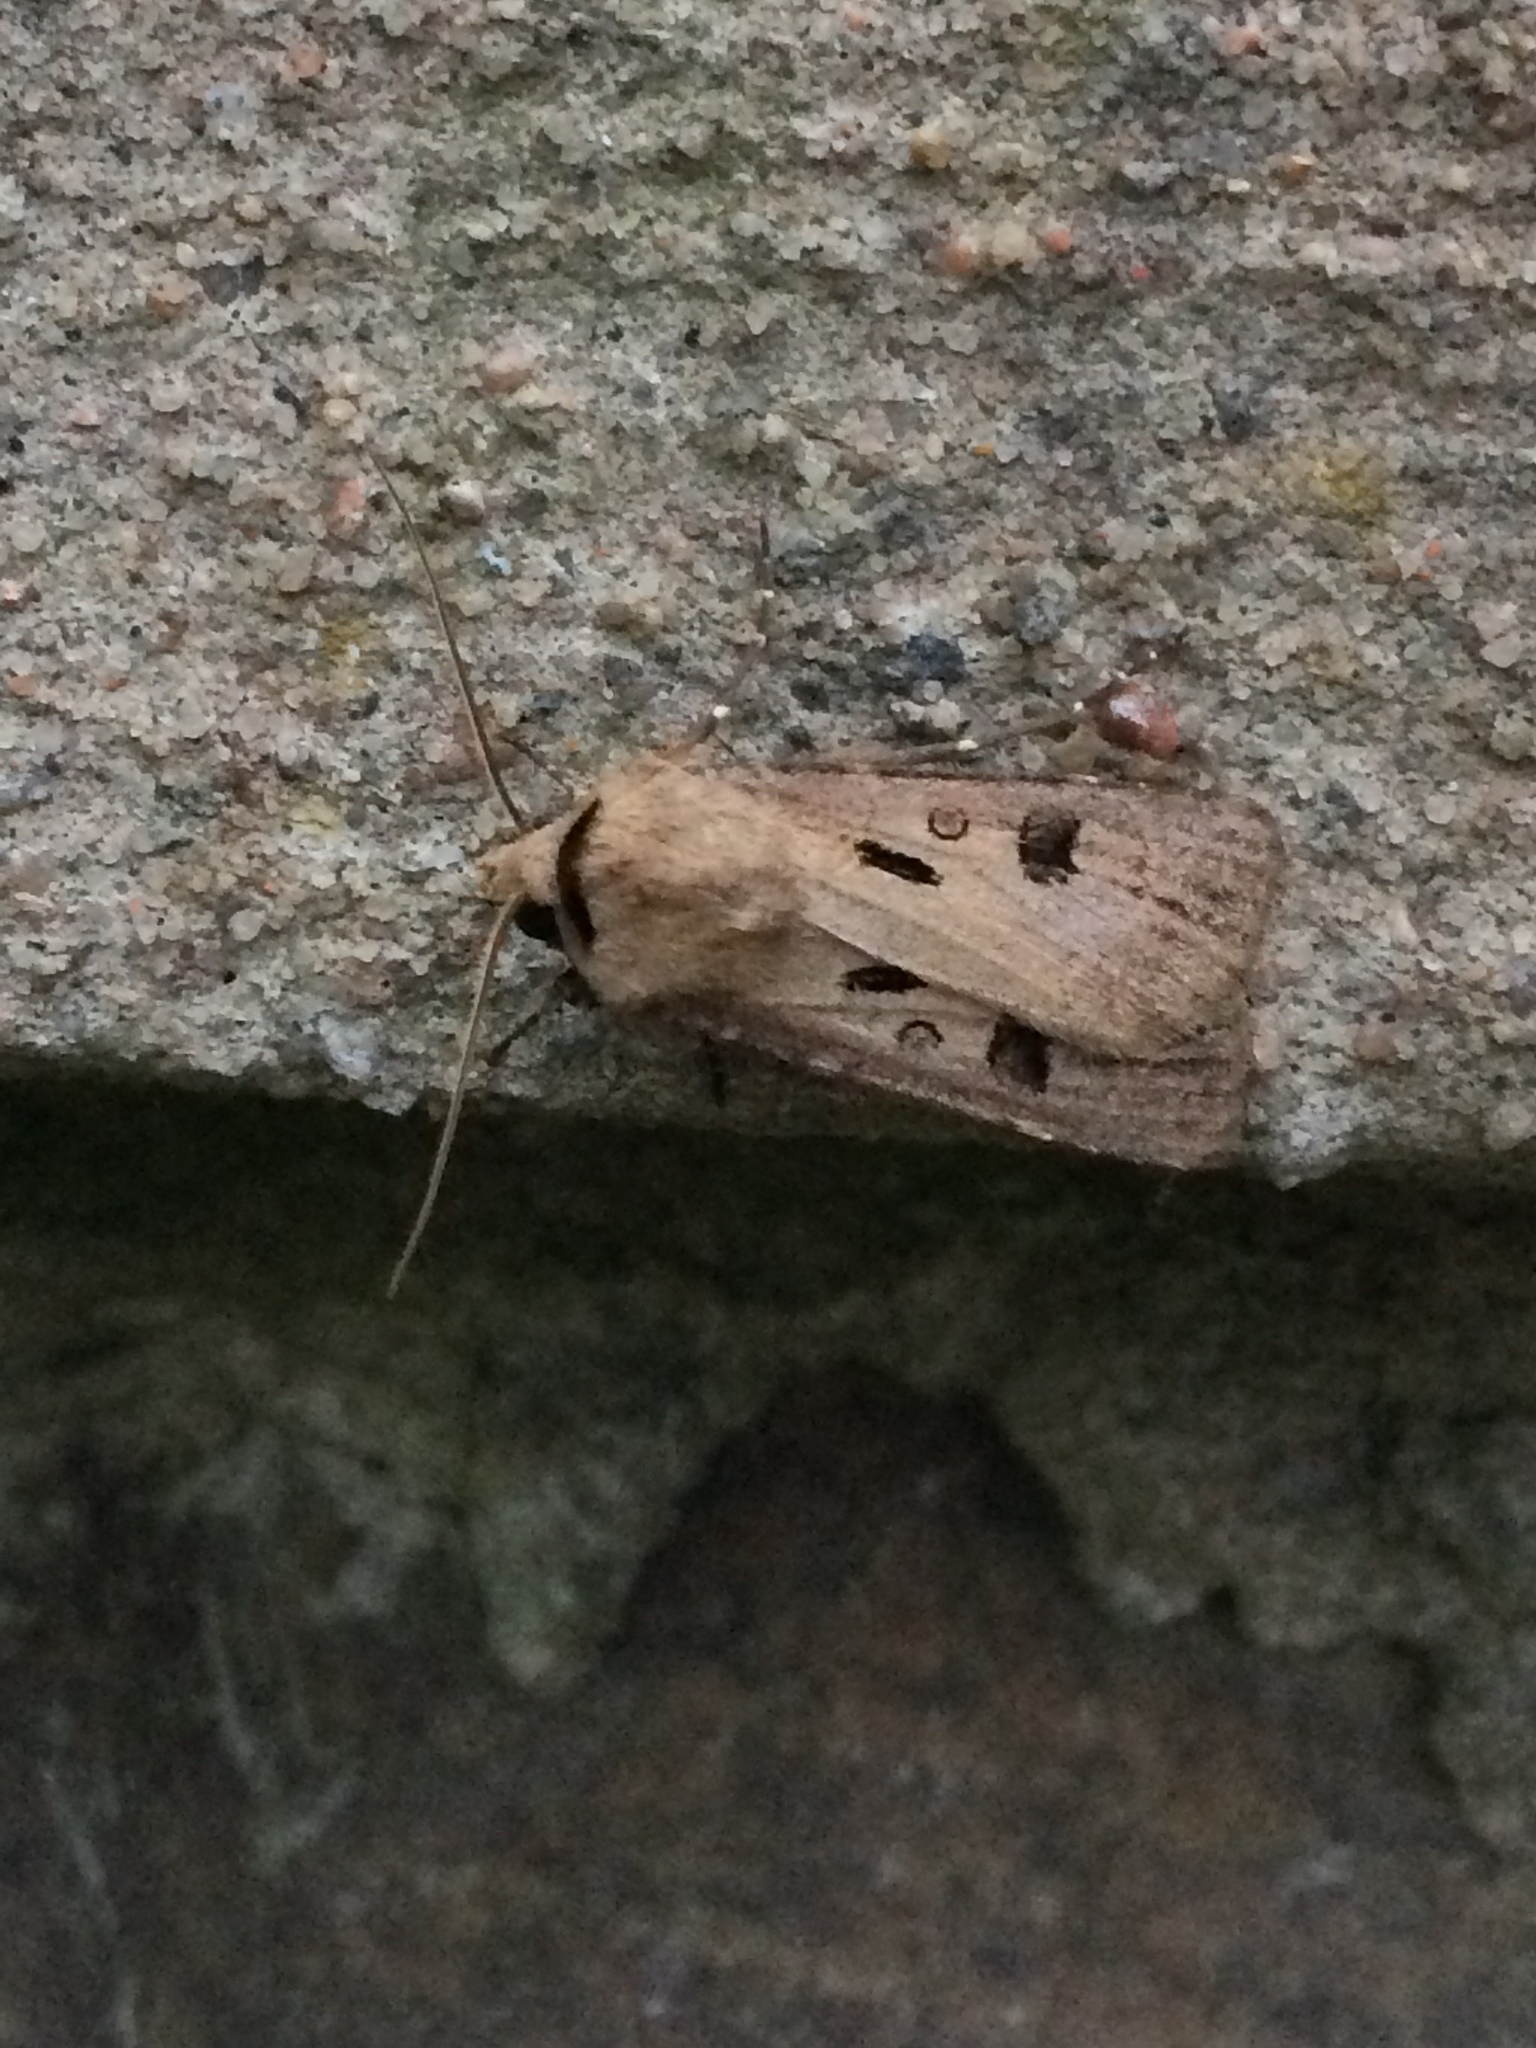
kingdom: Animalia
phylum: Arthropoda
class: Insecta
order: Lepidoptera
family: Noctuidae
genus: Agrotis
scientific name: Agrotis exclamationis
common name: Heart and dart
